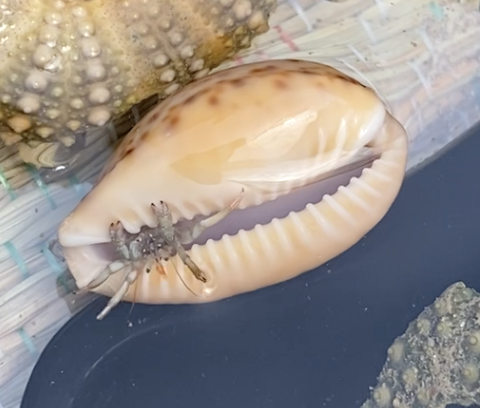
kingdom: Animalia
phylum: Arthropoda
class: Malacostraca
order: Decapoda
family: Diogenidae
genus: Clibanarius
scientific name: Clibanarius erythropus
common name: Hermit crab
